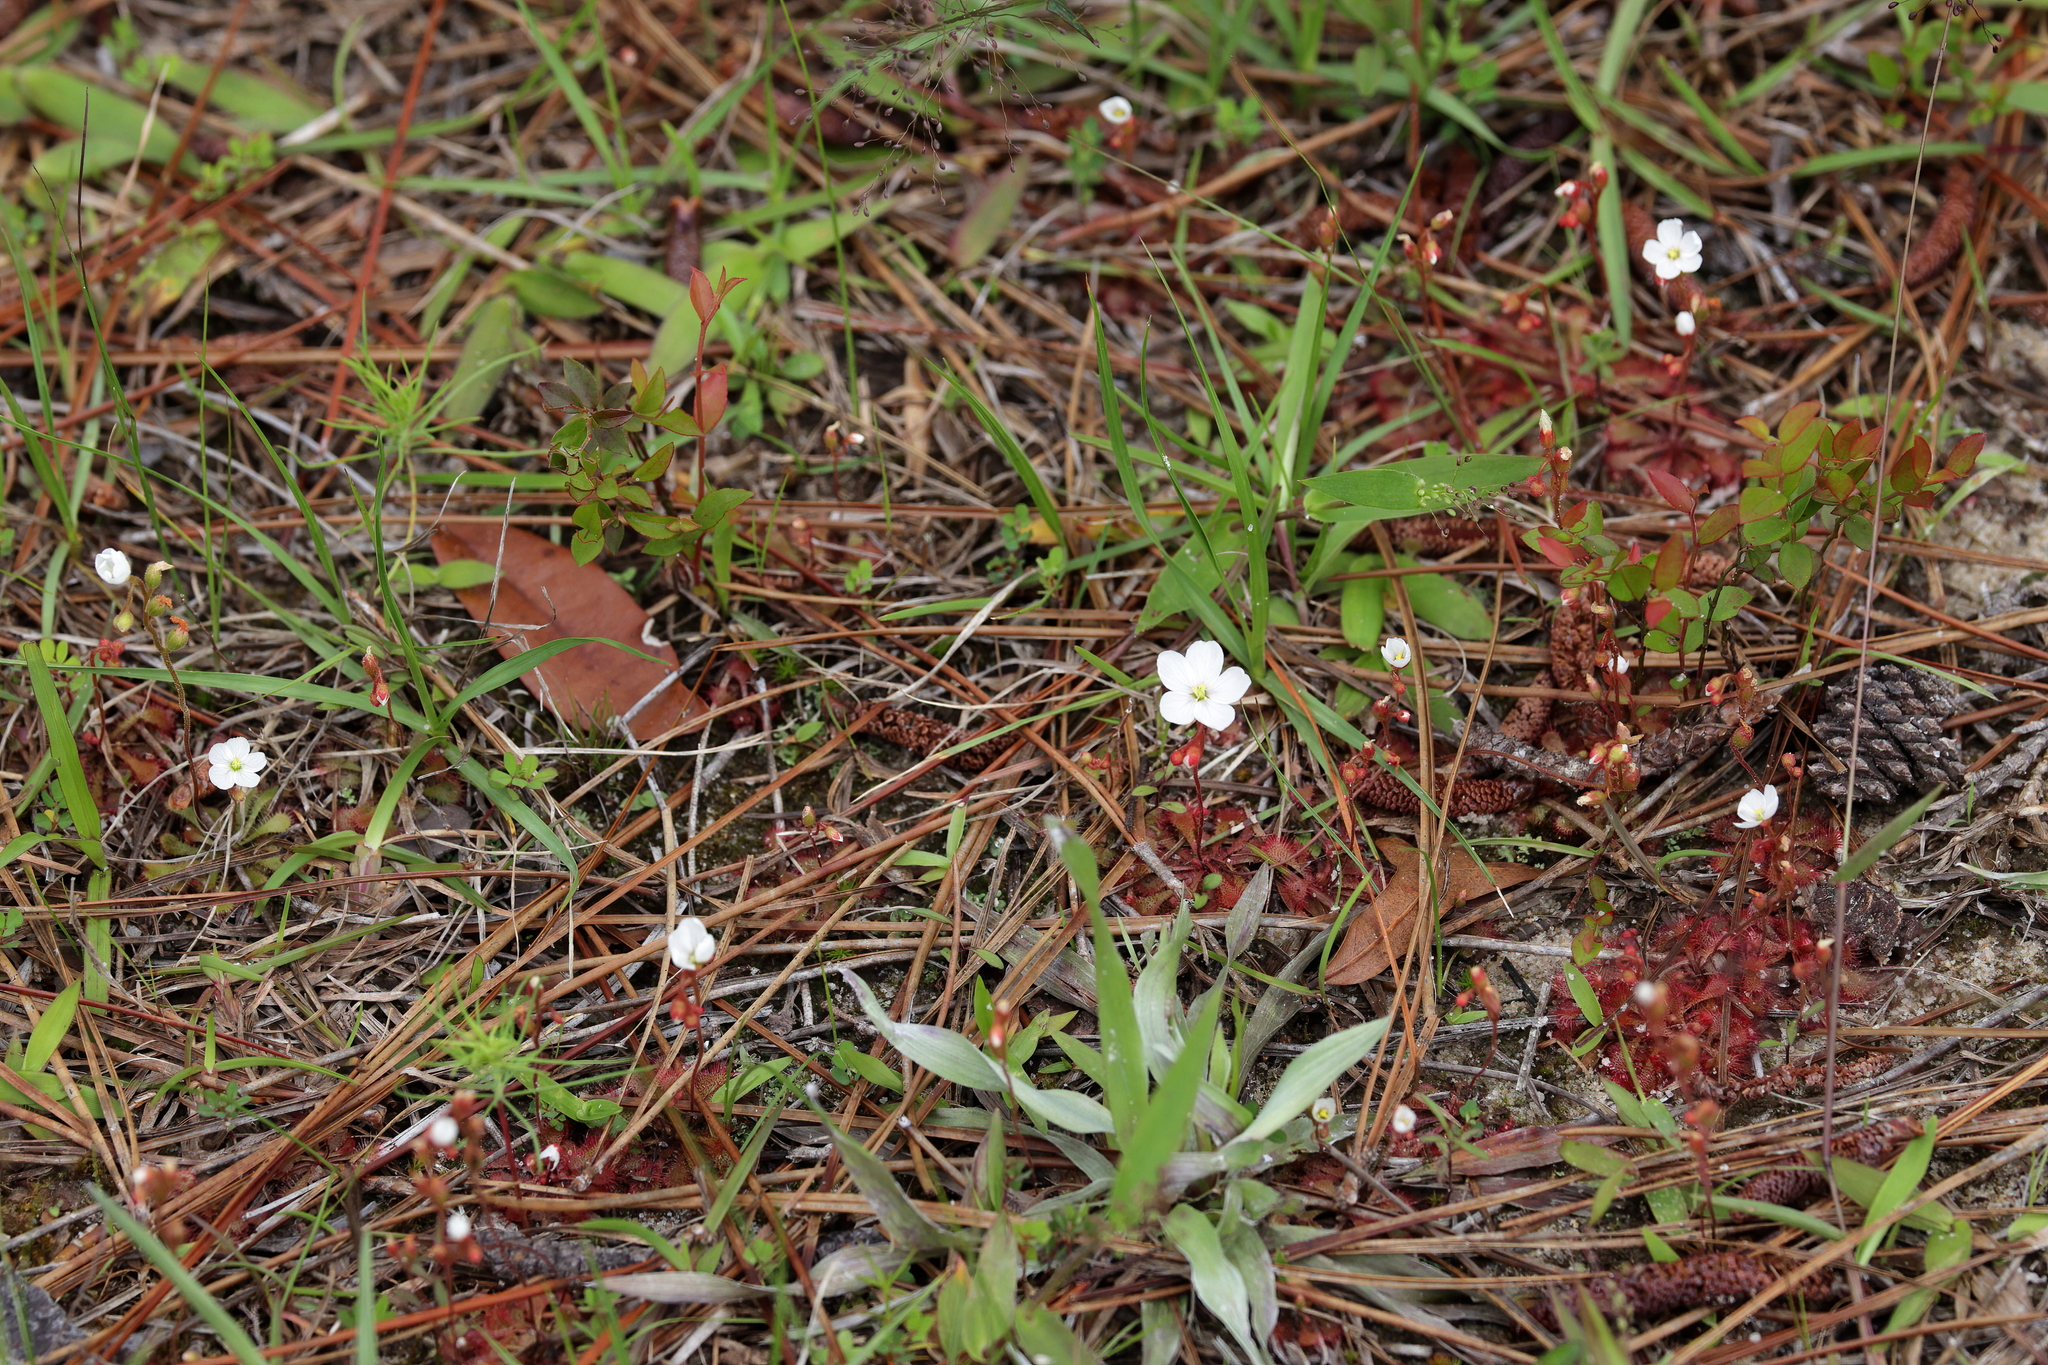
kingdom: Plantae
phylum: Tracheophyta
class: Magnoliopsida
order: Caryophyllales
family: Droseraceae
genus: Drosera
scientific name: Drosera brevifolia
